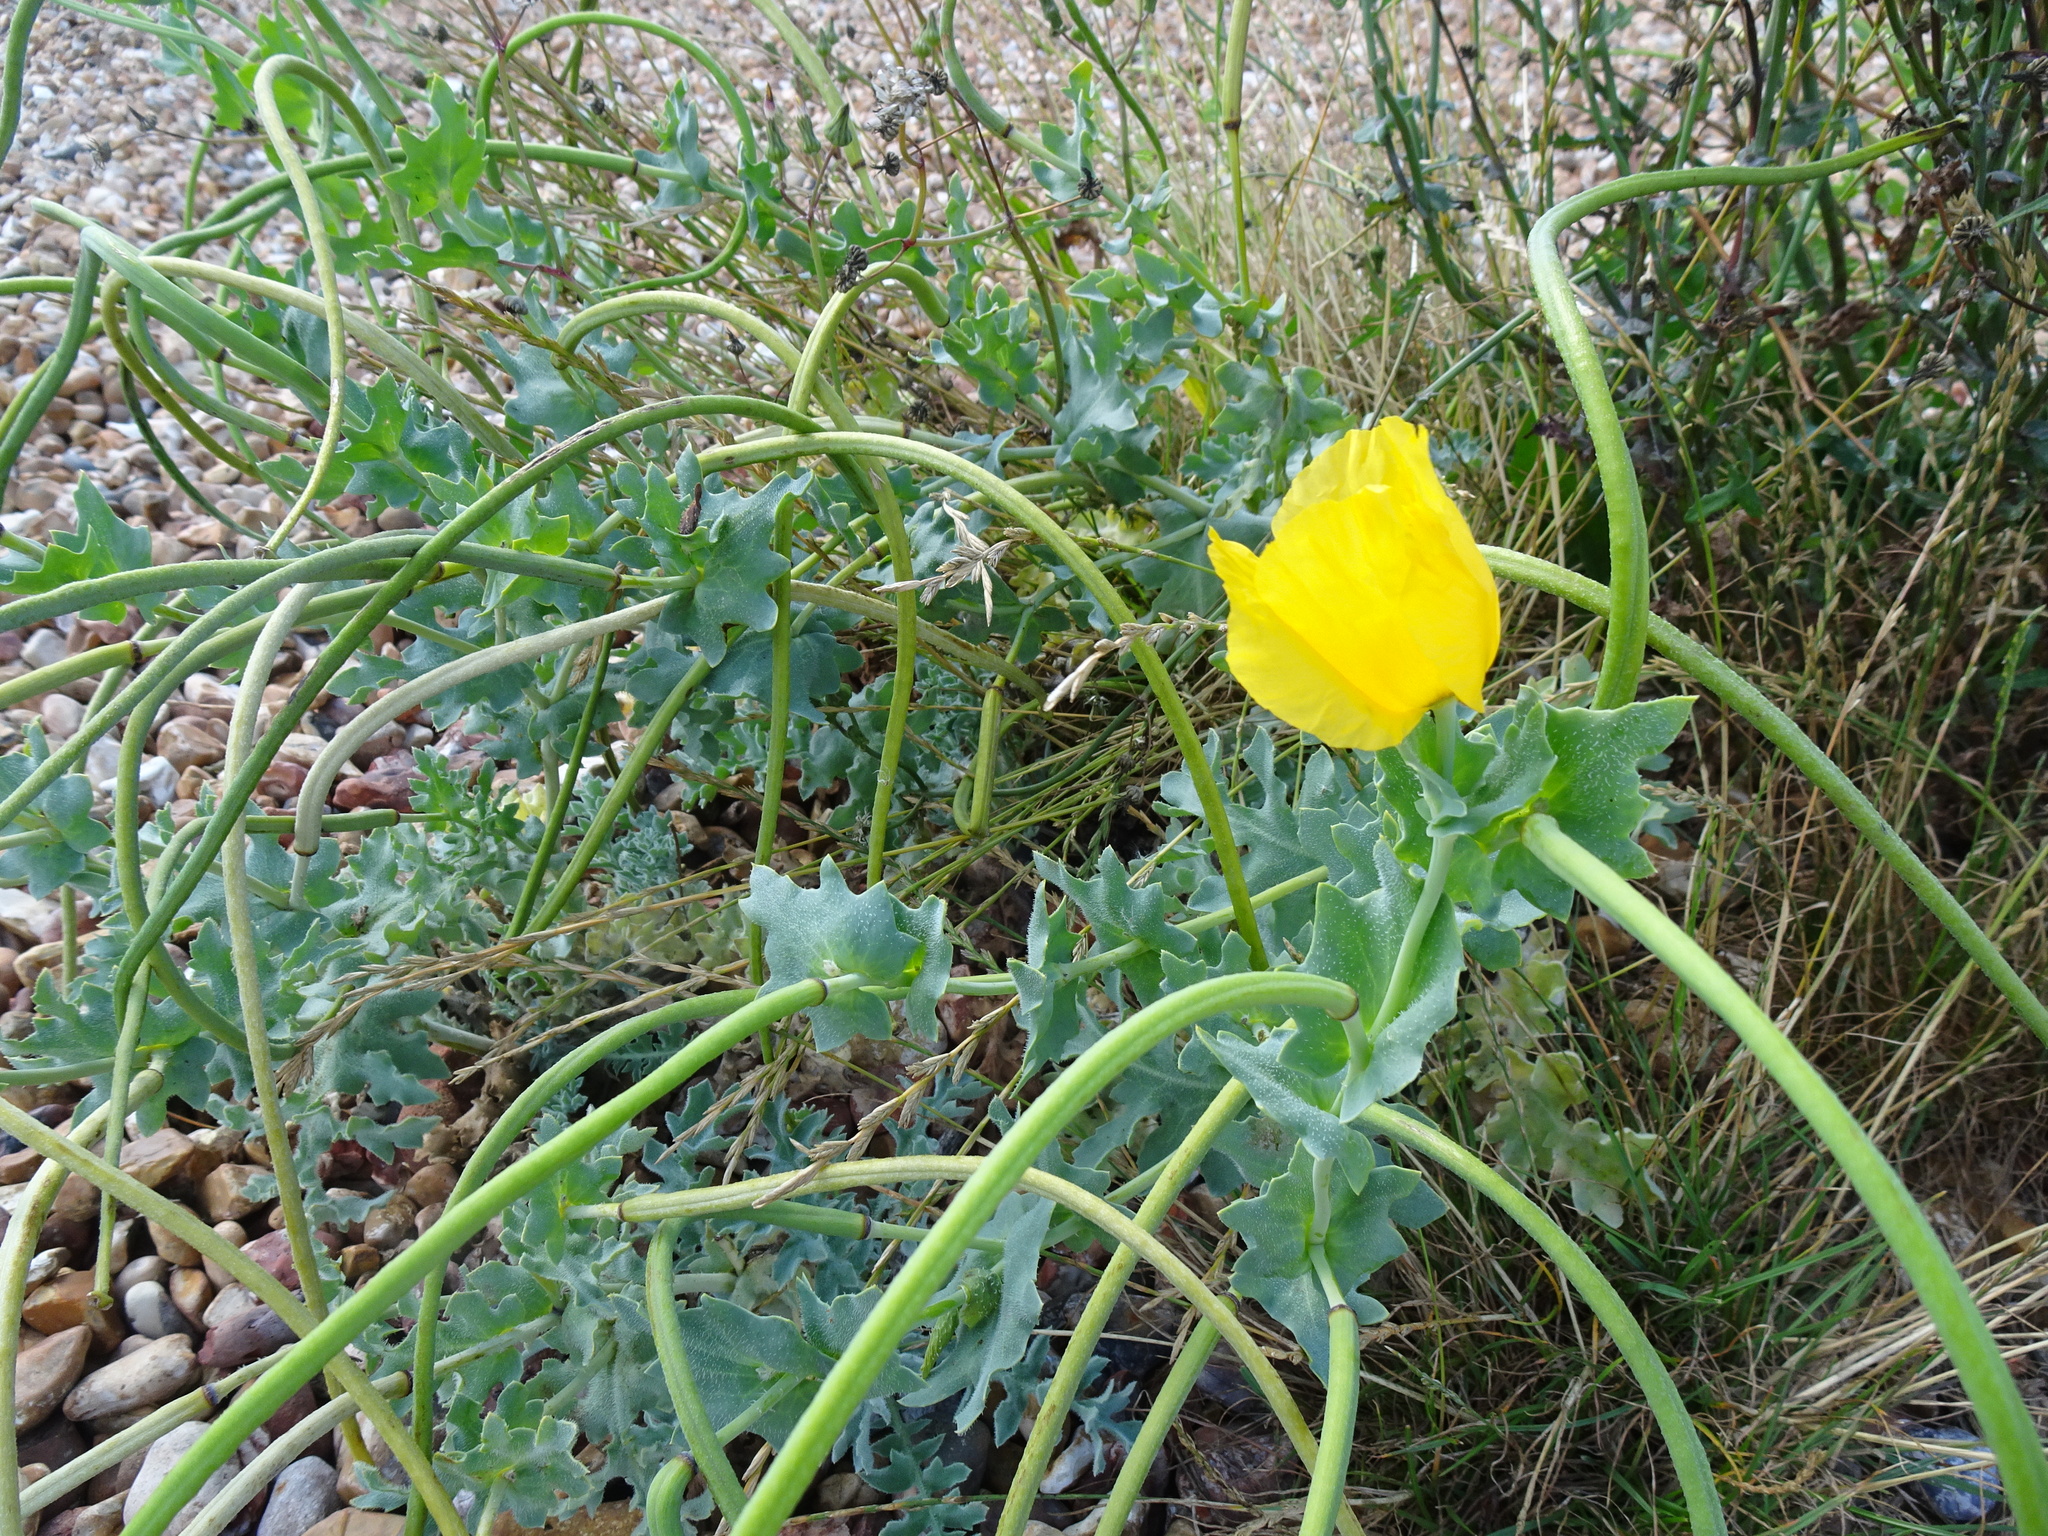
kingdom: Plantae
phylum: Tracheophyta
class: Magnoliopsida
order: Ranunculales
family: Papaveraceae
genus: Glaucium
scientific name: Glaucium flavum
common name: Yellow horned-poppy
